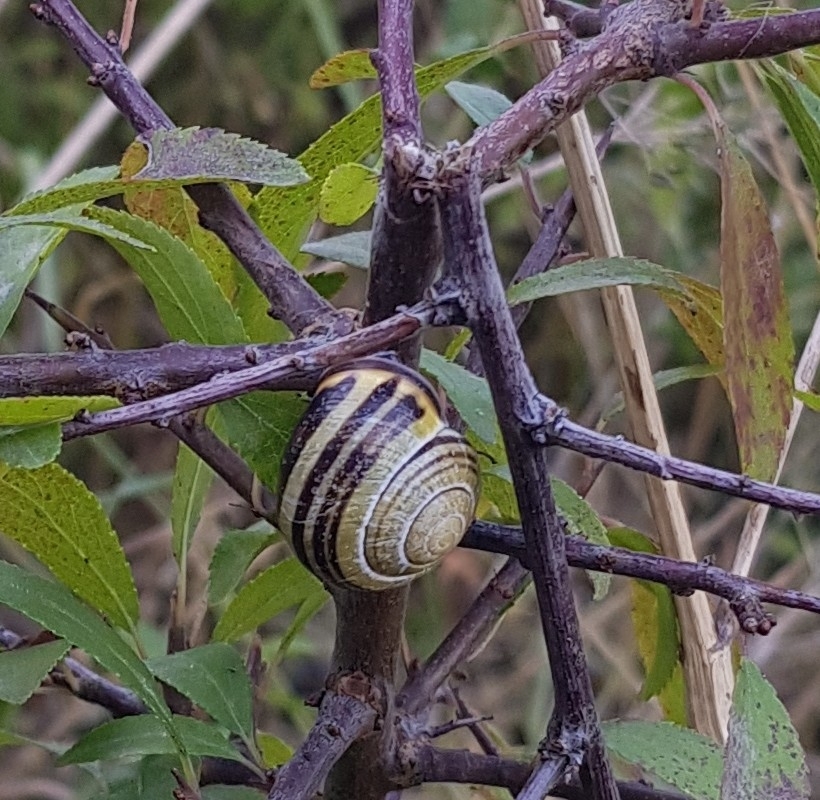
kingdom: Animalia
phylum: Mollusca
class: Gastropoda
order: Stylommatophora
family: Helicidae
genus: Cepaea
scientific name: Cepaea nemoralis
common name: Grovesnail
